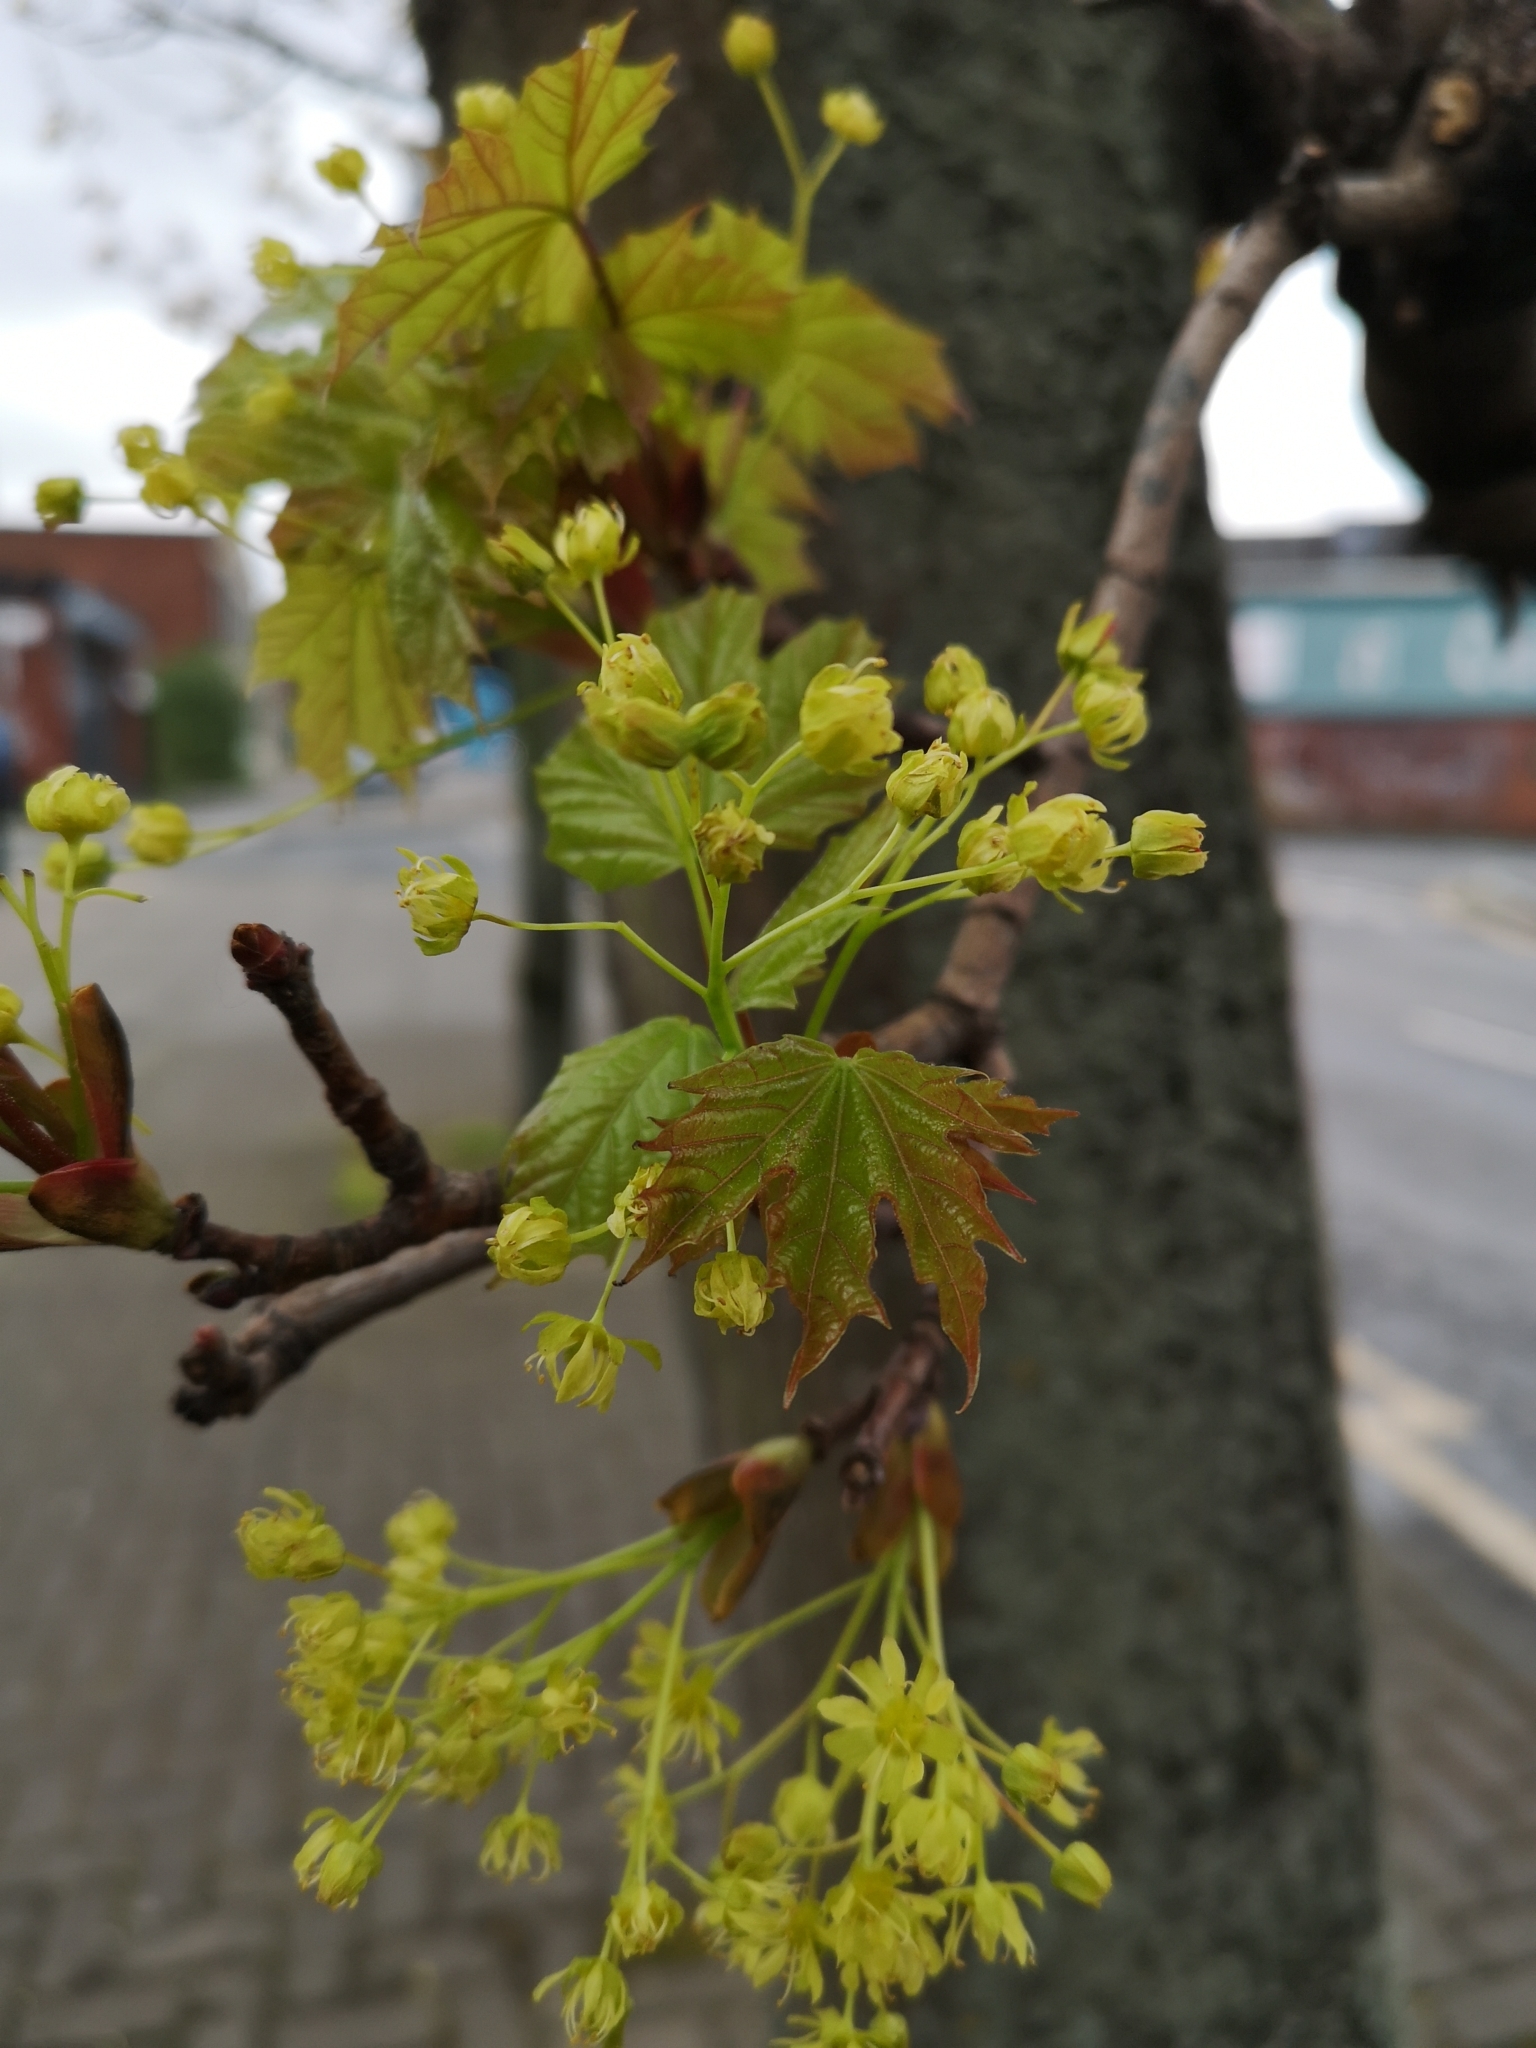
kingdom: Plantae
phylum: Tracheophyta
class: Magnoliopsida
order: Sapindales
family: Sapindaceae
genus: Acer
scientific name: Acer platanoides
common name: Norway maple
